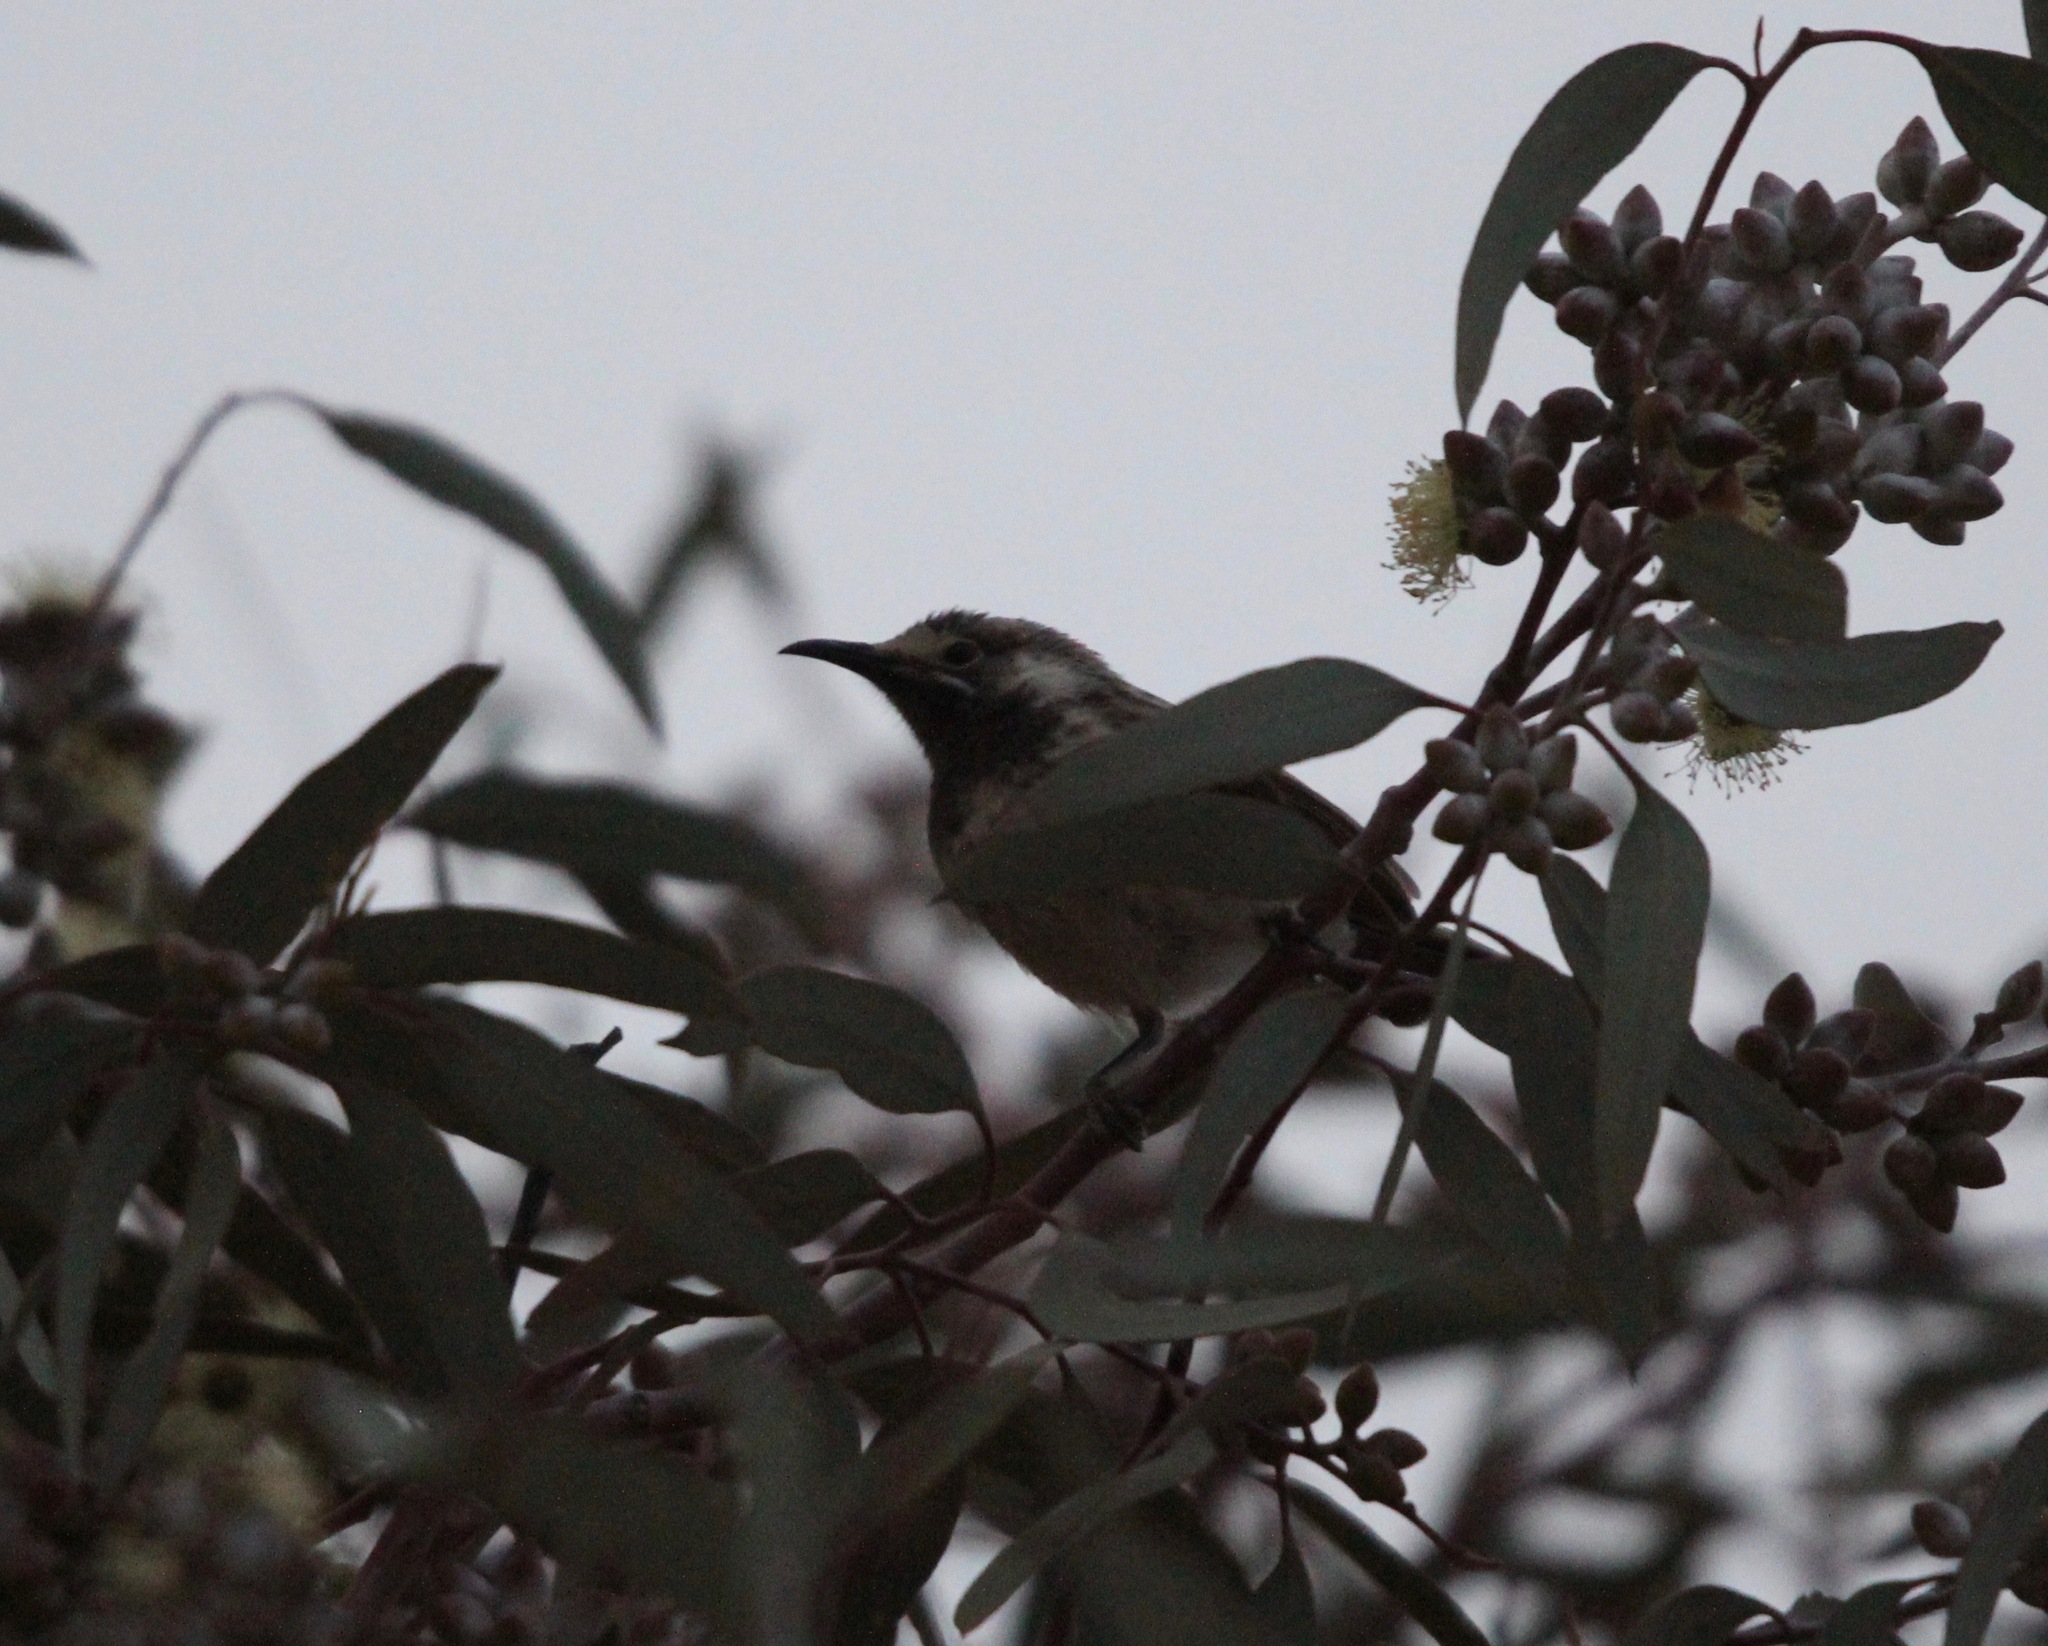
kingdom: Animalia
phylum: Chordata
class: Aves
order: Passeriformes
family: Meliphagidae
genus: Purnella
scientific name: Purnella albifrons
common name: White-fronted honeyeater
